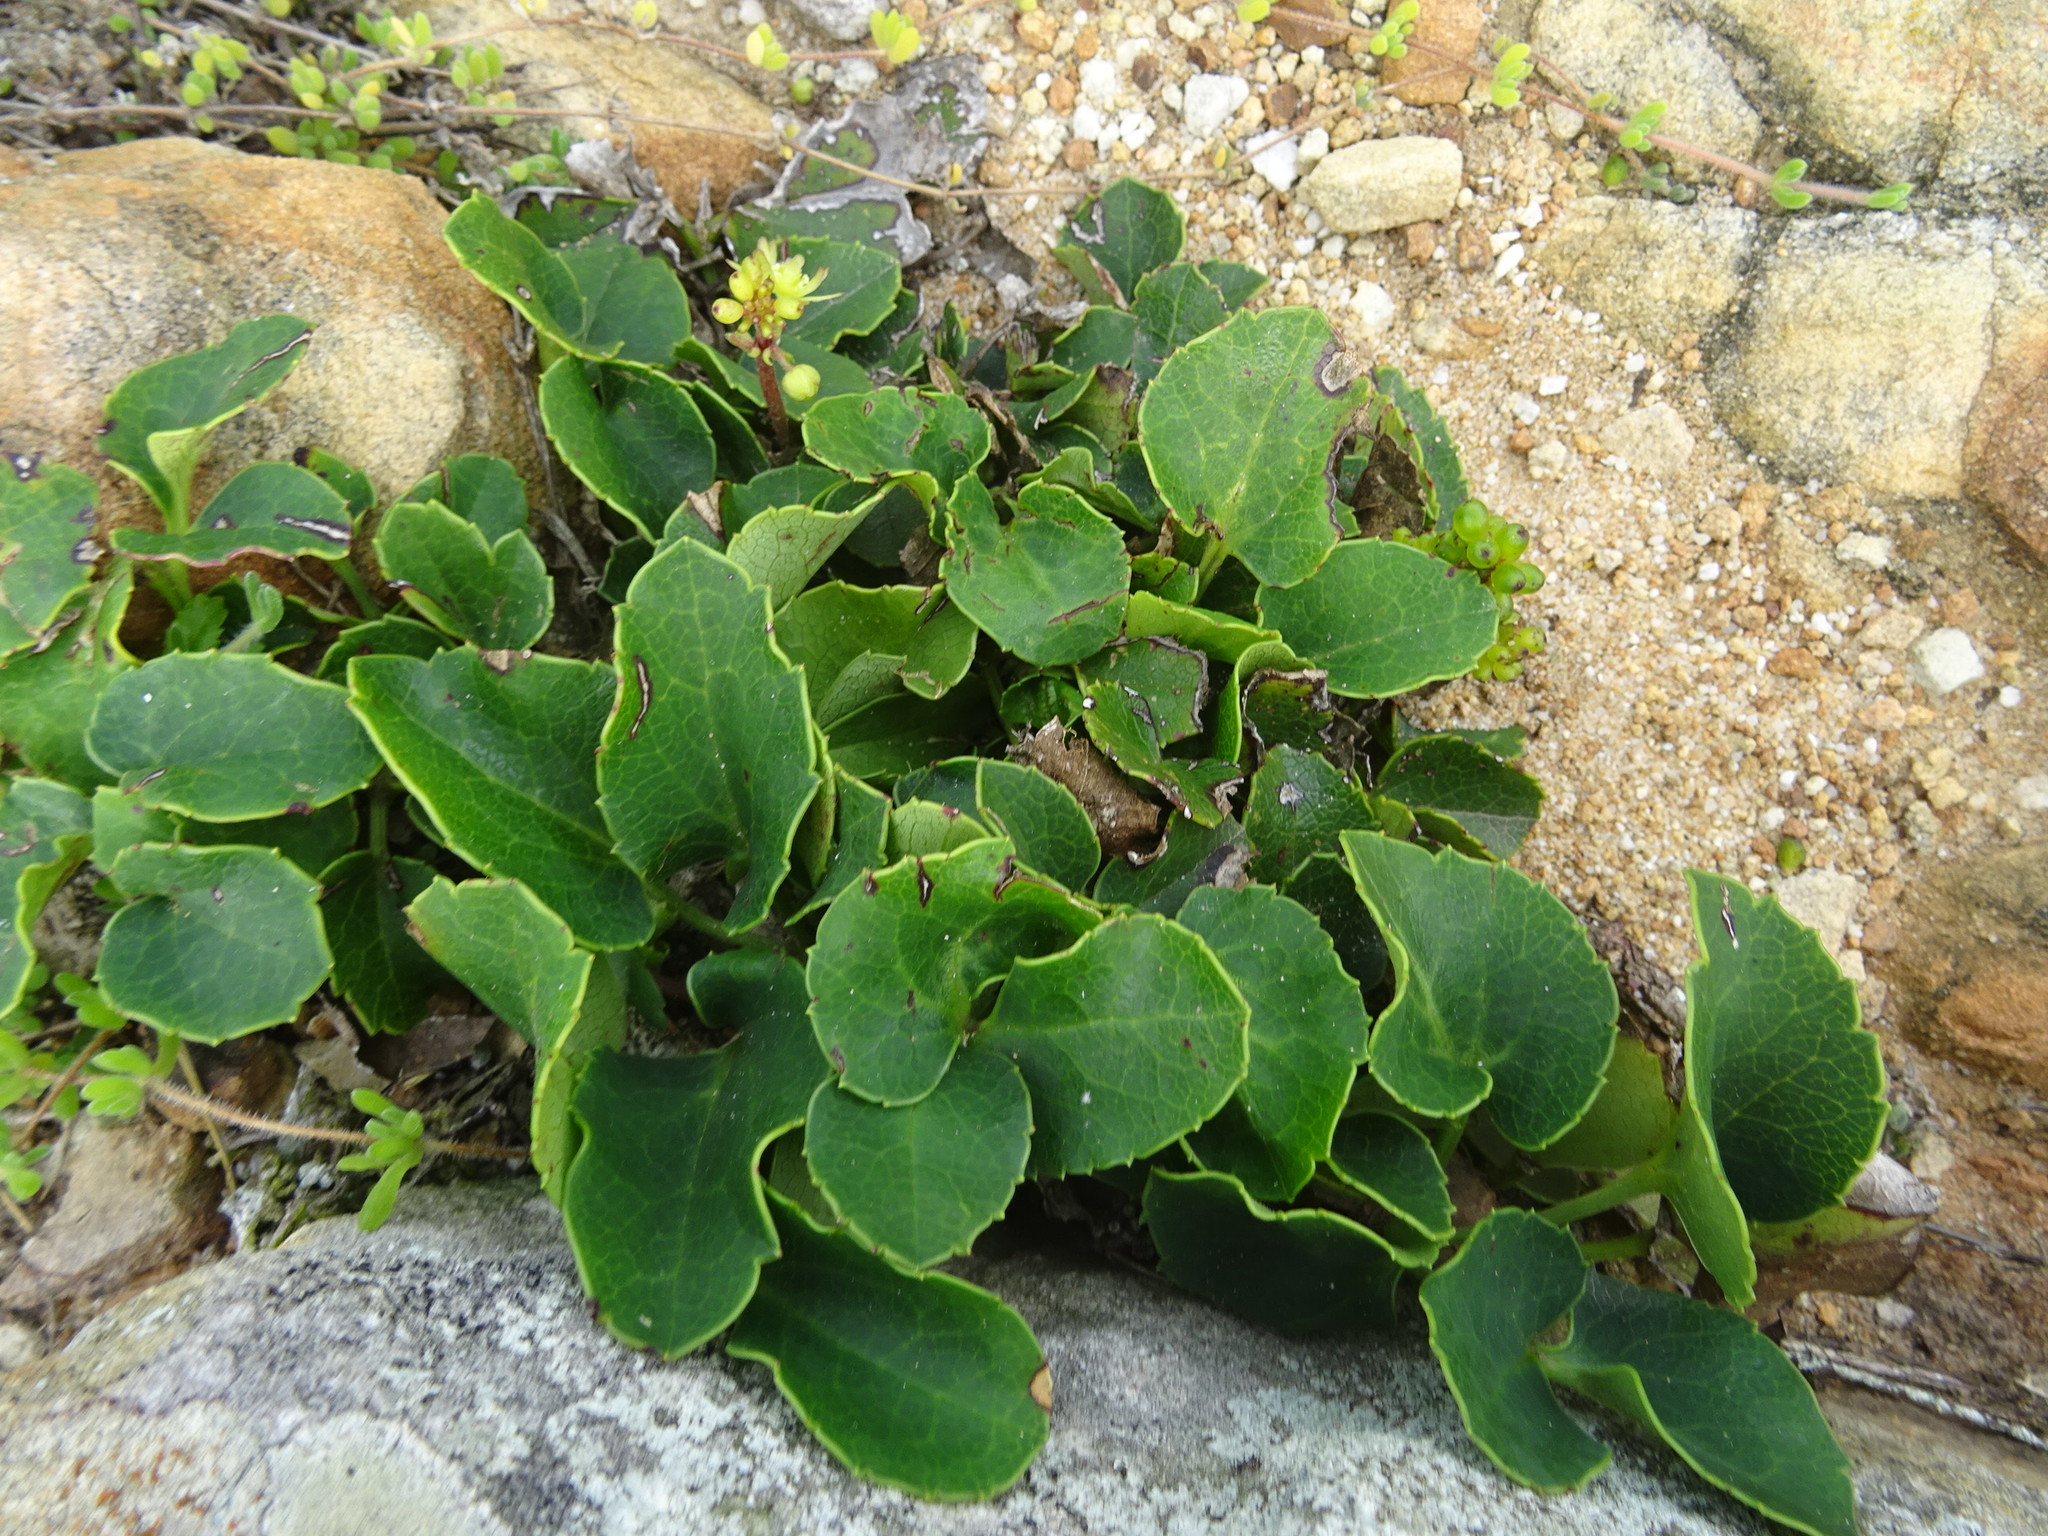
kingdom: Plantae
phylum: Tracheophyta
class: Magnoliopsida
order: Ranunculales
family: Ranunculaceae
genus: Knowltonia
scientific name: Knowltonia vesicatoria
